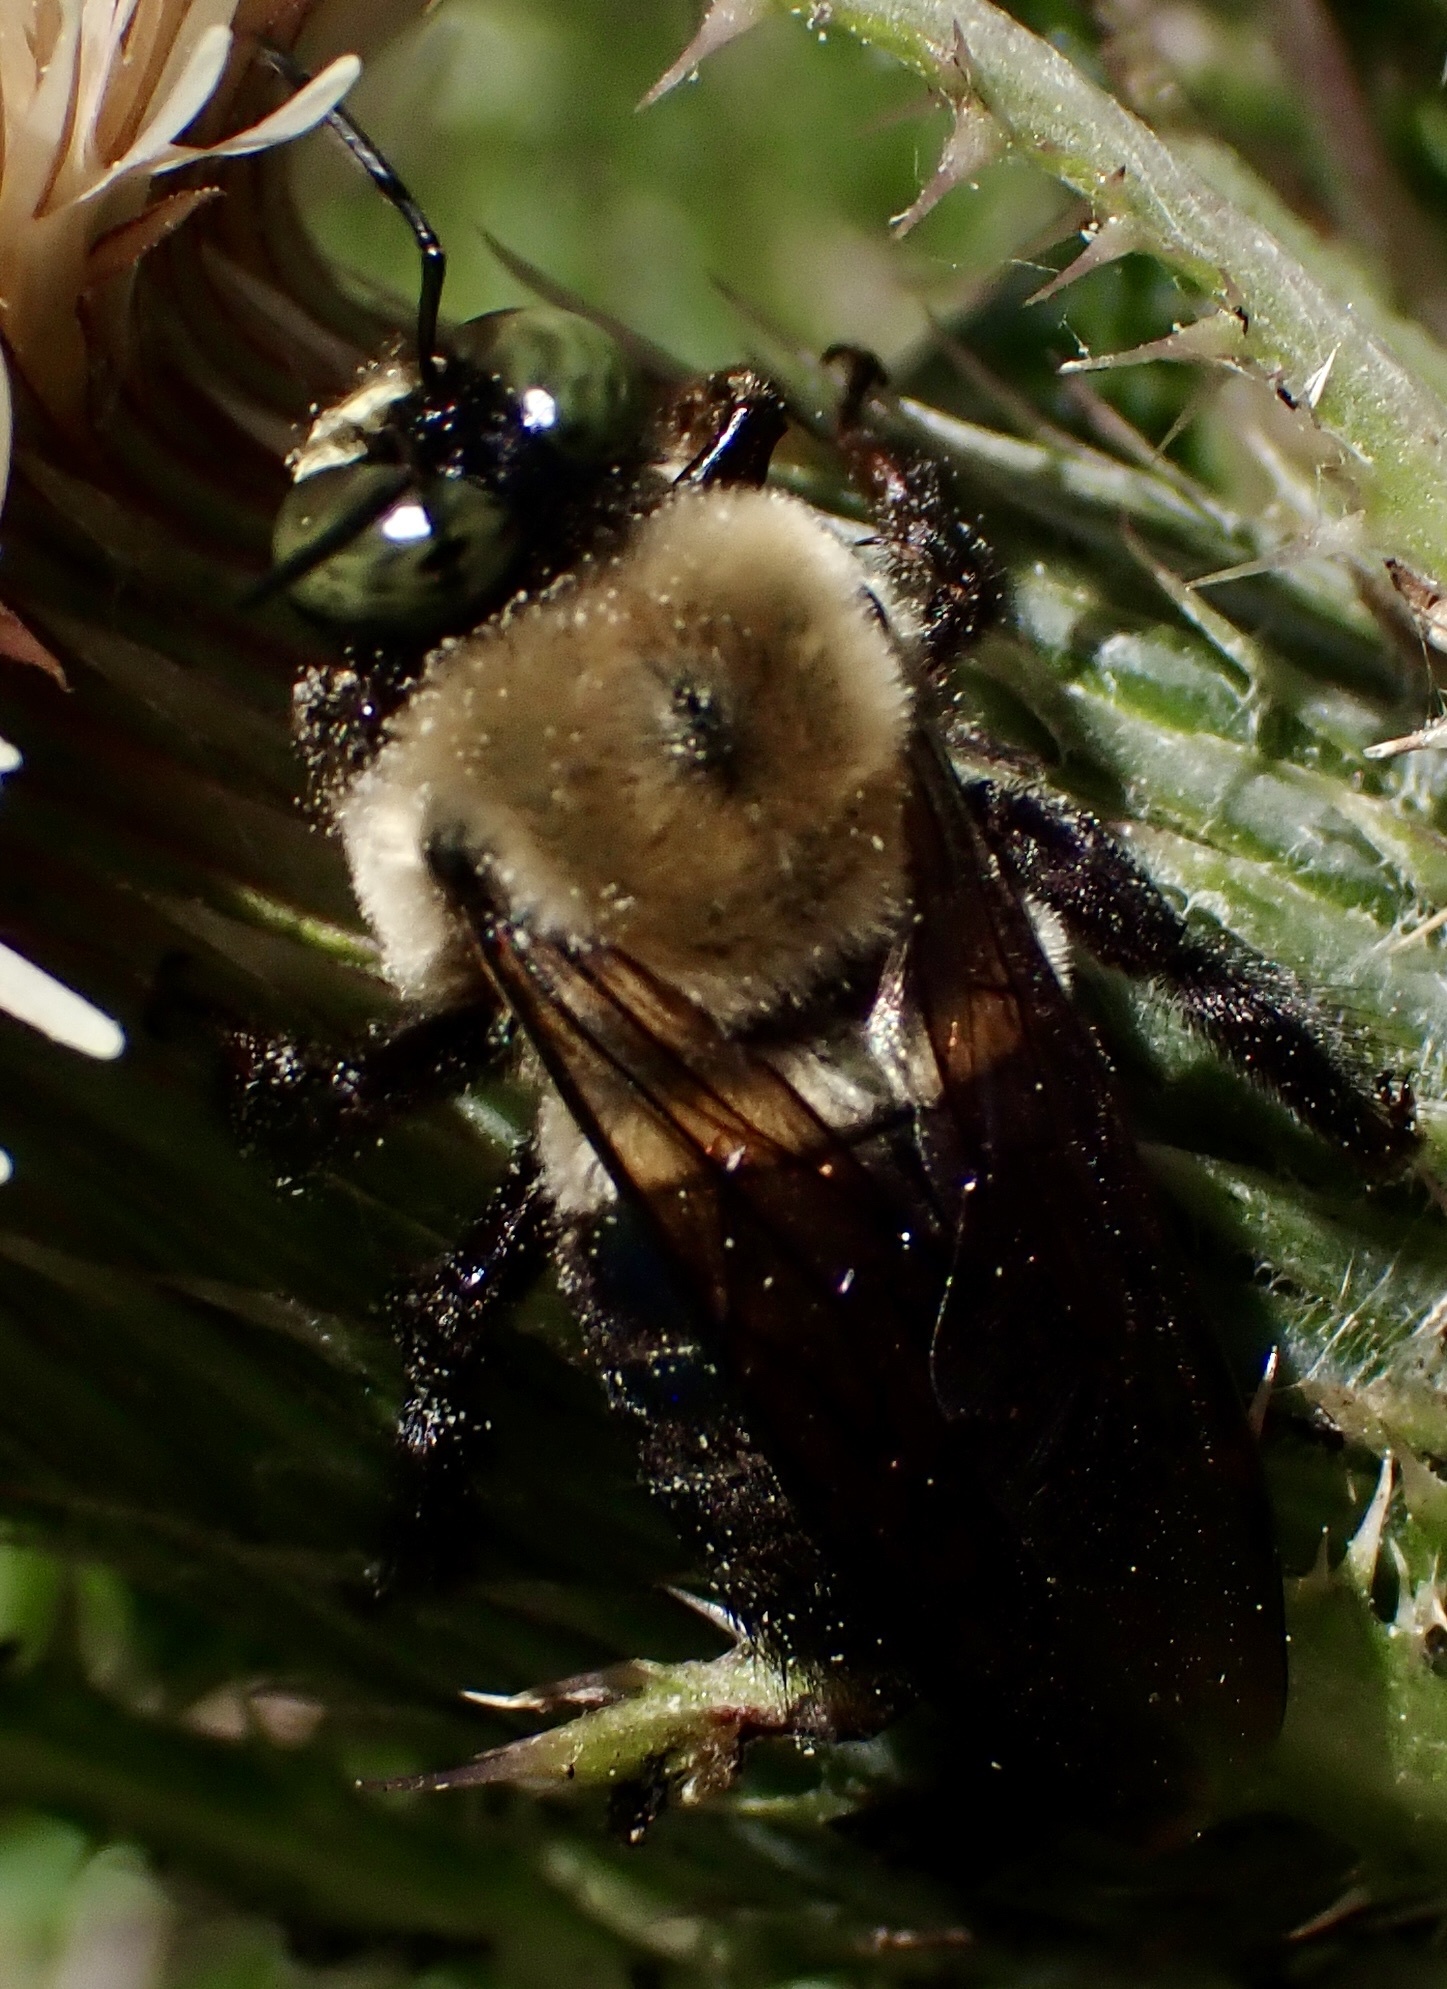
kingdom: Animalia
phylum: Arthropoda
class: Insecta
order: Hymenoptera
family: Apidae
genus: Xylocopa
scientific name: Xylocopa virginica
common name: Carpenter bee
